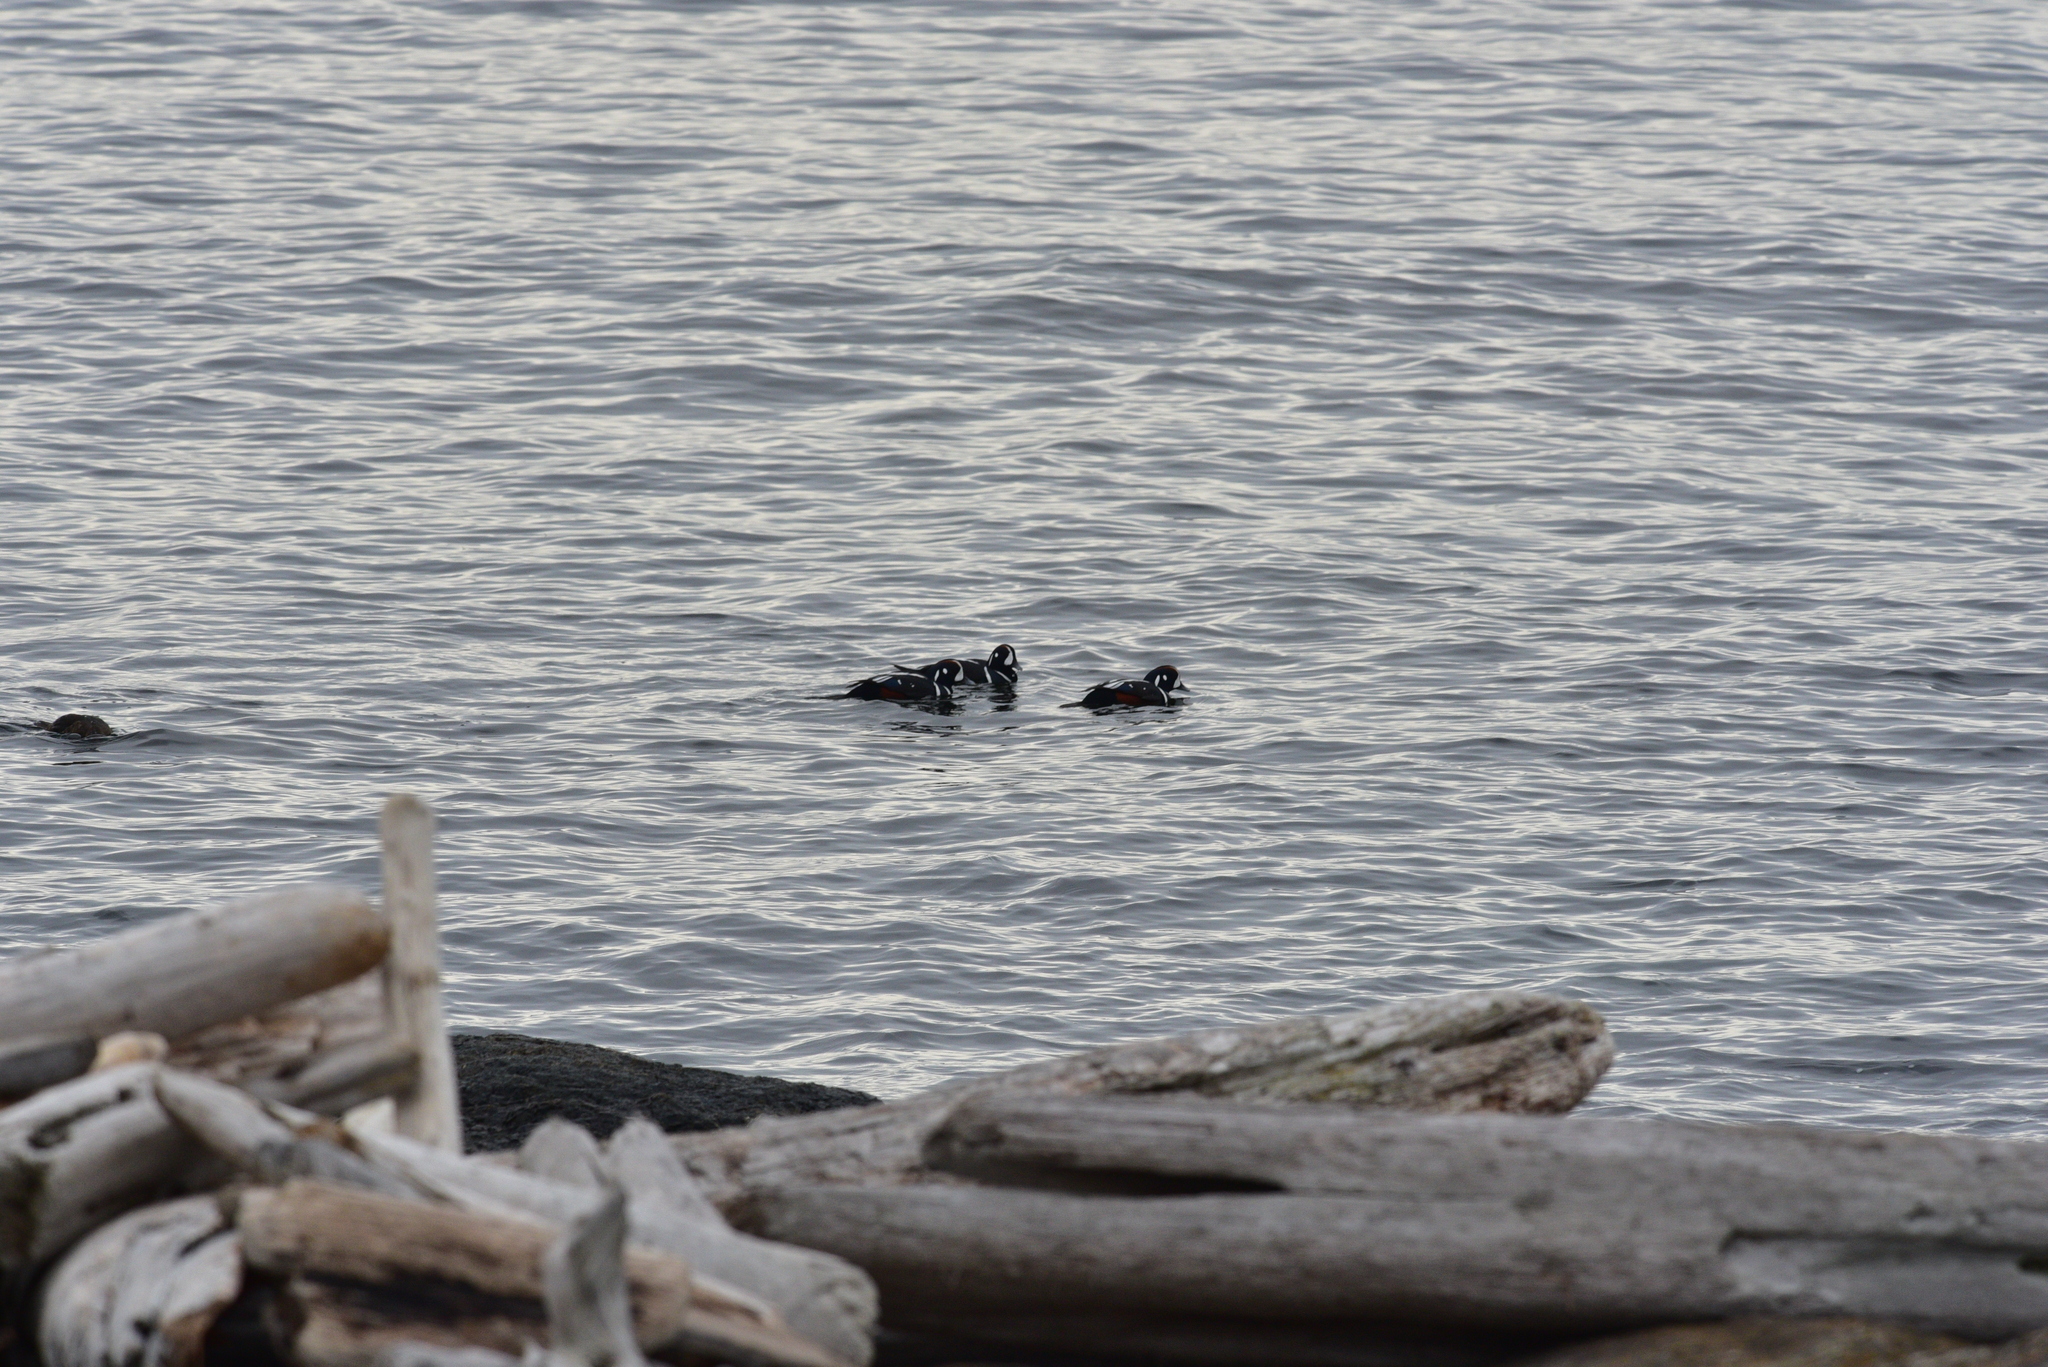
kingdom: Animalia
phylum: Chordata
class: Aves
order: Anseriformes
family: Anatidae
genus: Histrionicus
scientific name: Histrionicus histrionicus
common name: Harlequin duck
